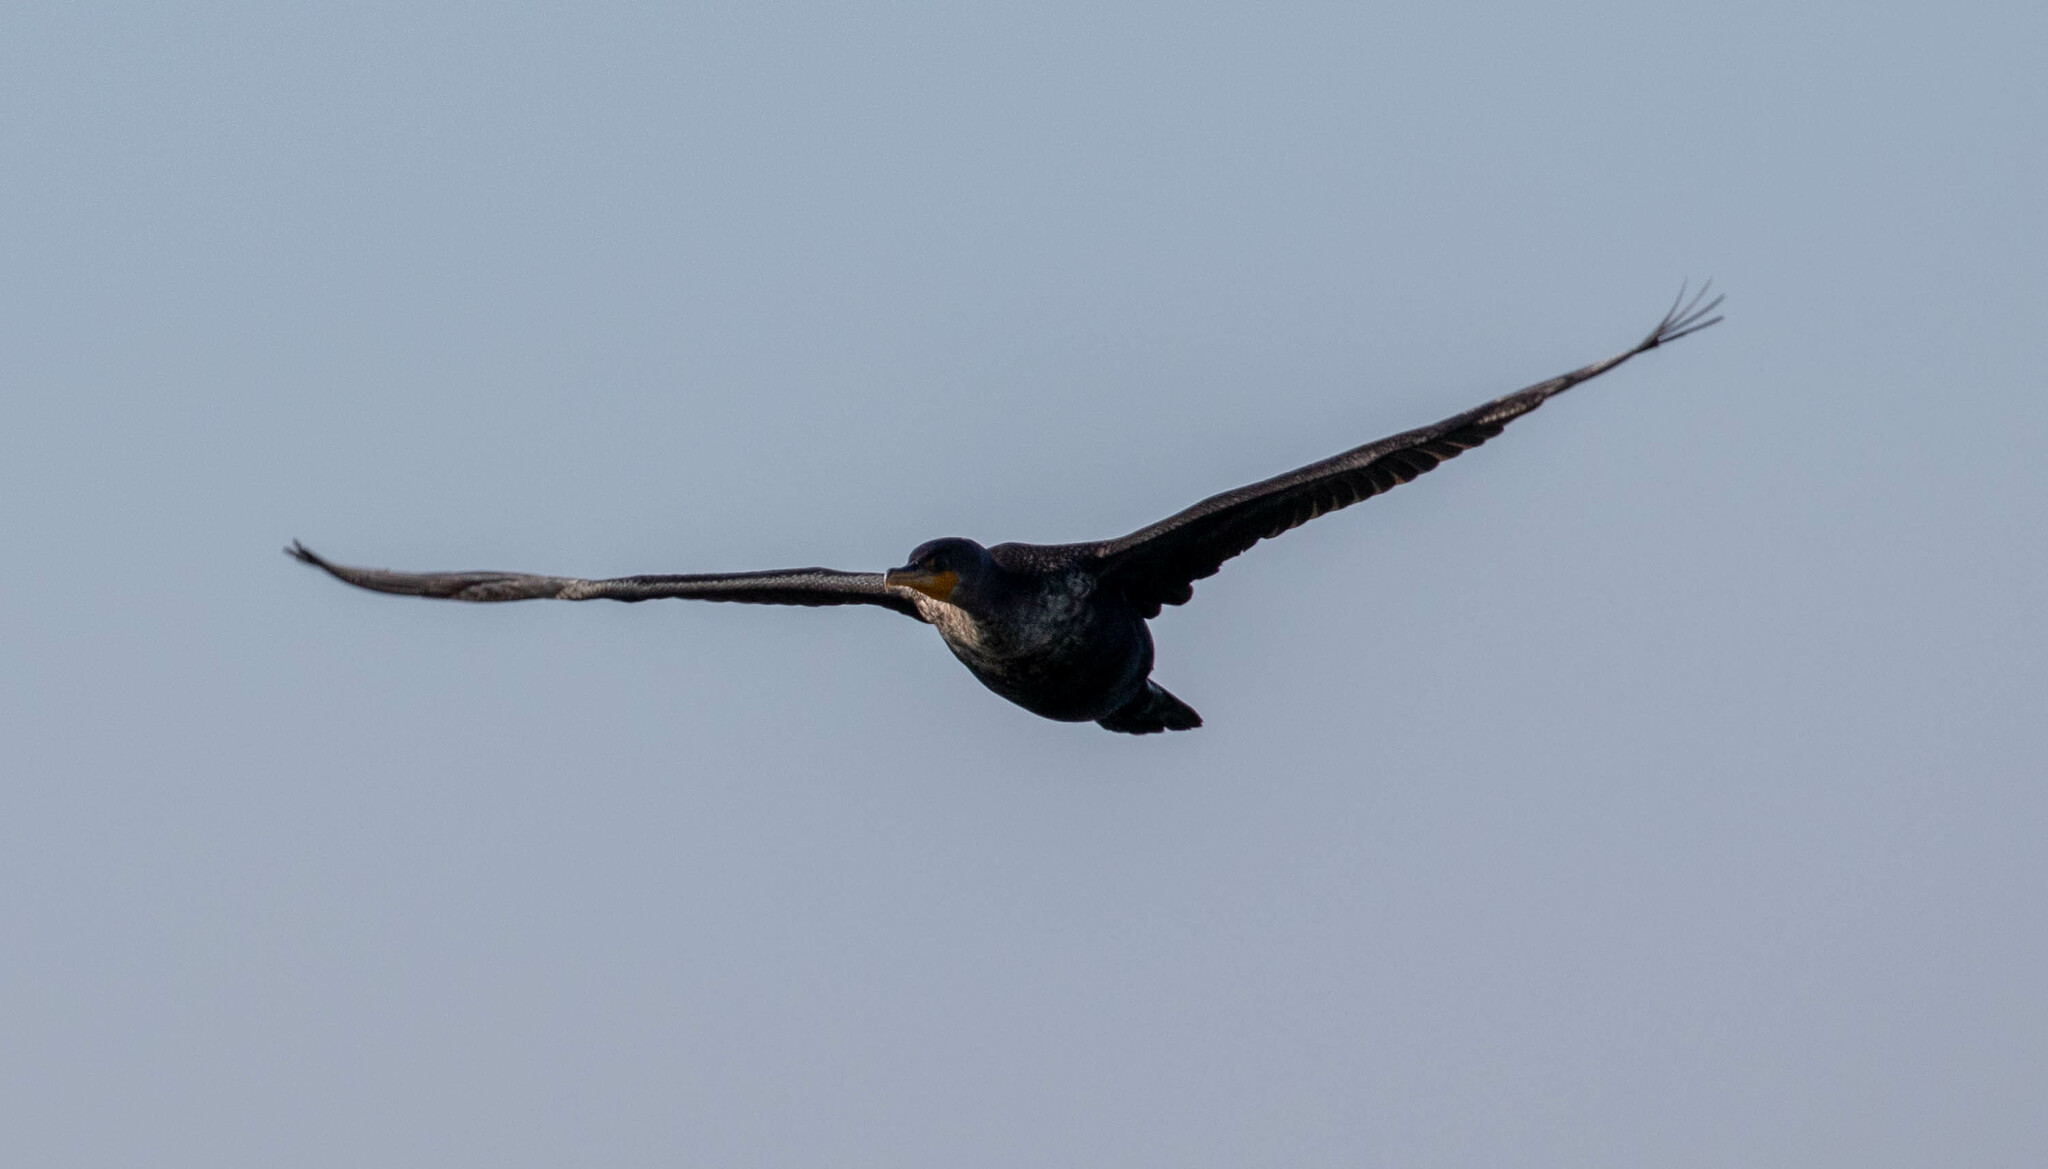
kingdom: Animalia
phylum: Chordata
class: Aves
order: Suliformes
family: Phalacrocoracidae
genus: Phalacrocorax
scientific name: Phalacrocorax auritus
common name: Double-crested cormorant
